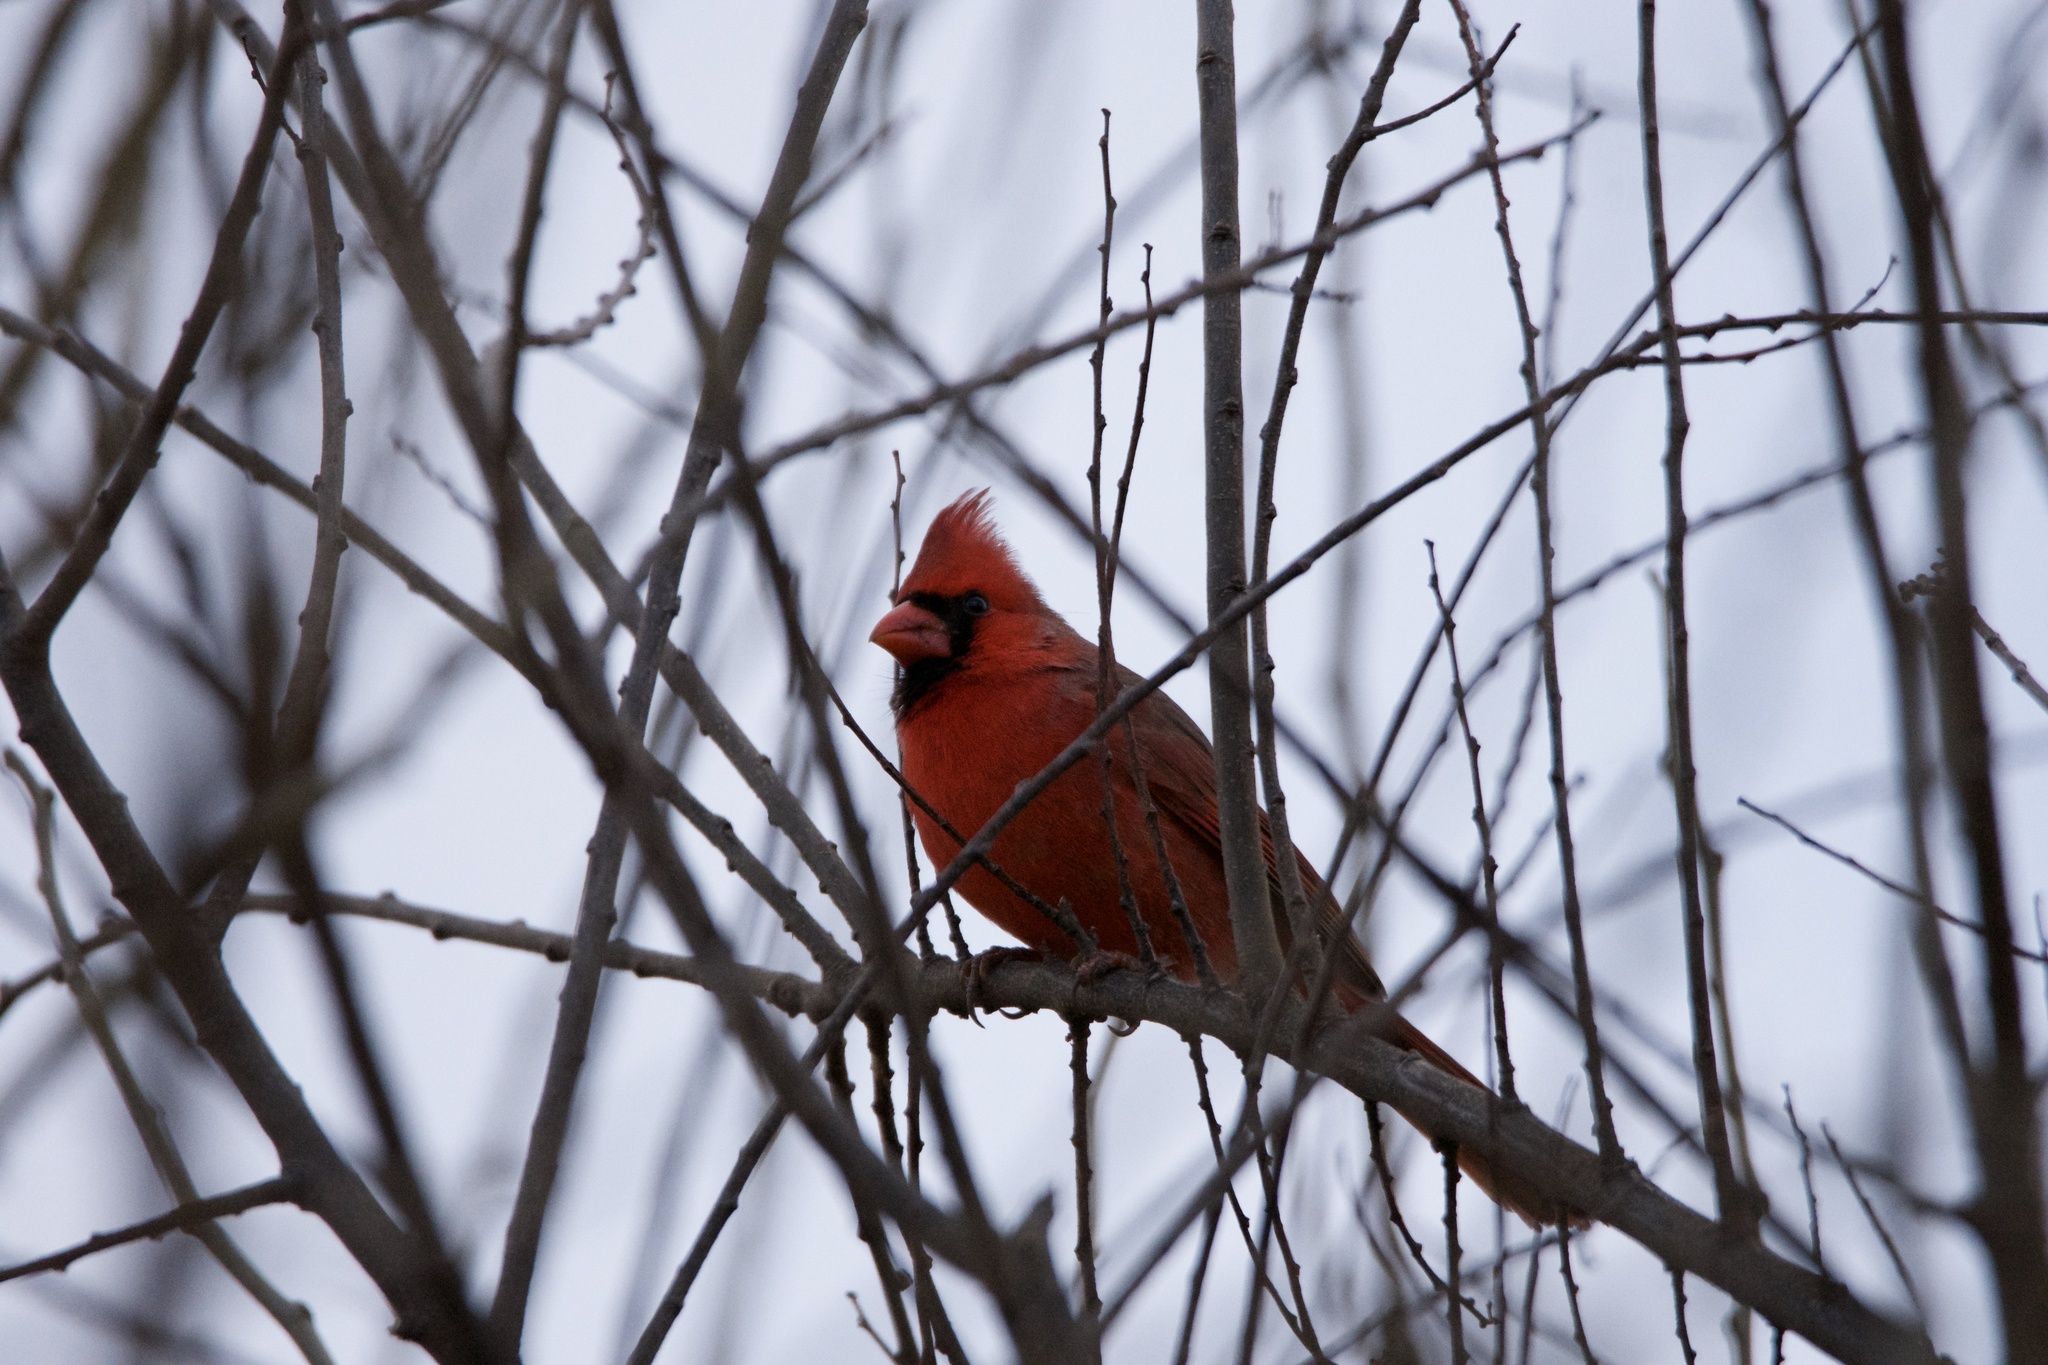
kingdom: Animalia
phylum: Chordata
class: Aves
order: Passeriformes
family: Cardinalidae
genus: Cardinalis
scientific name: Cardinalis cardinalis
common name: Northern cardinal
